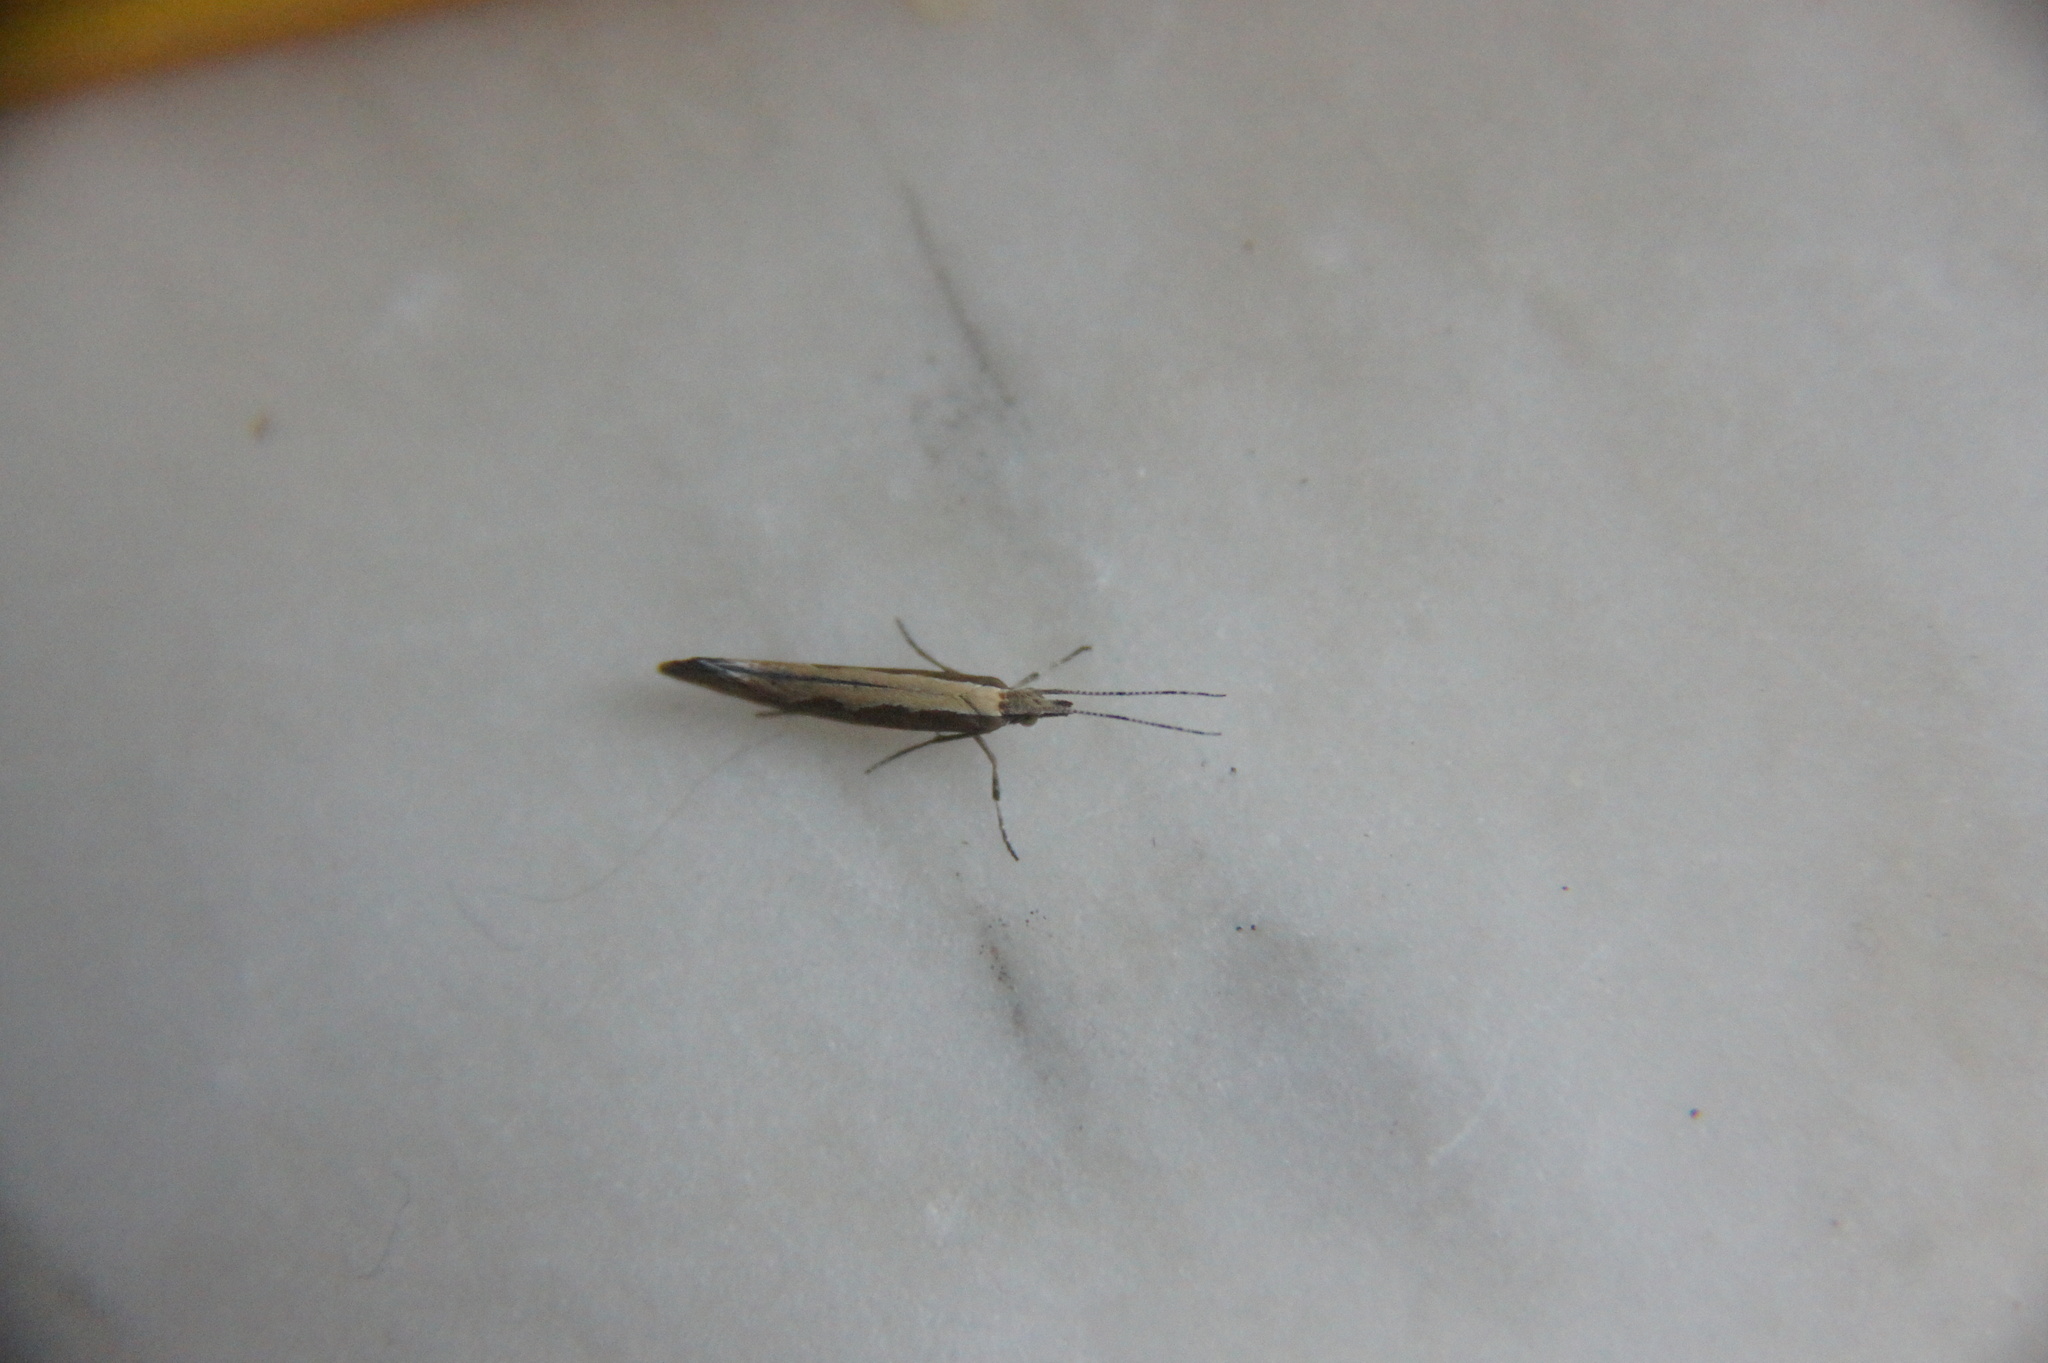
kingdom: Animalia
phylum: Arthropoda
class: Insecta
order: Lepidoptera
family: Plutellidae
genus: Plutella
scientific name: Plutella xylostella
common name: Diamond-back moth
